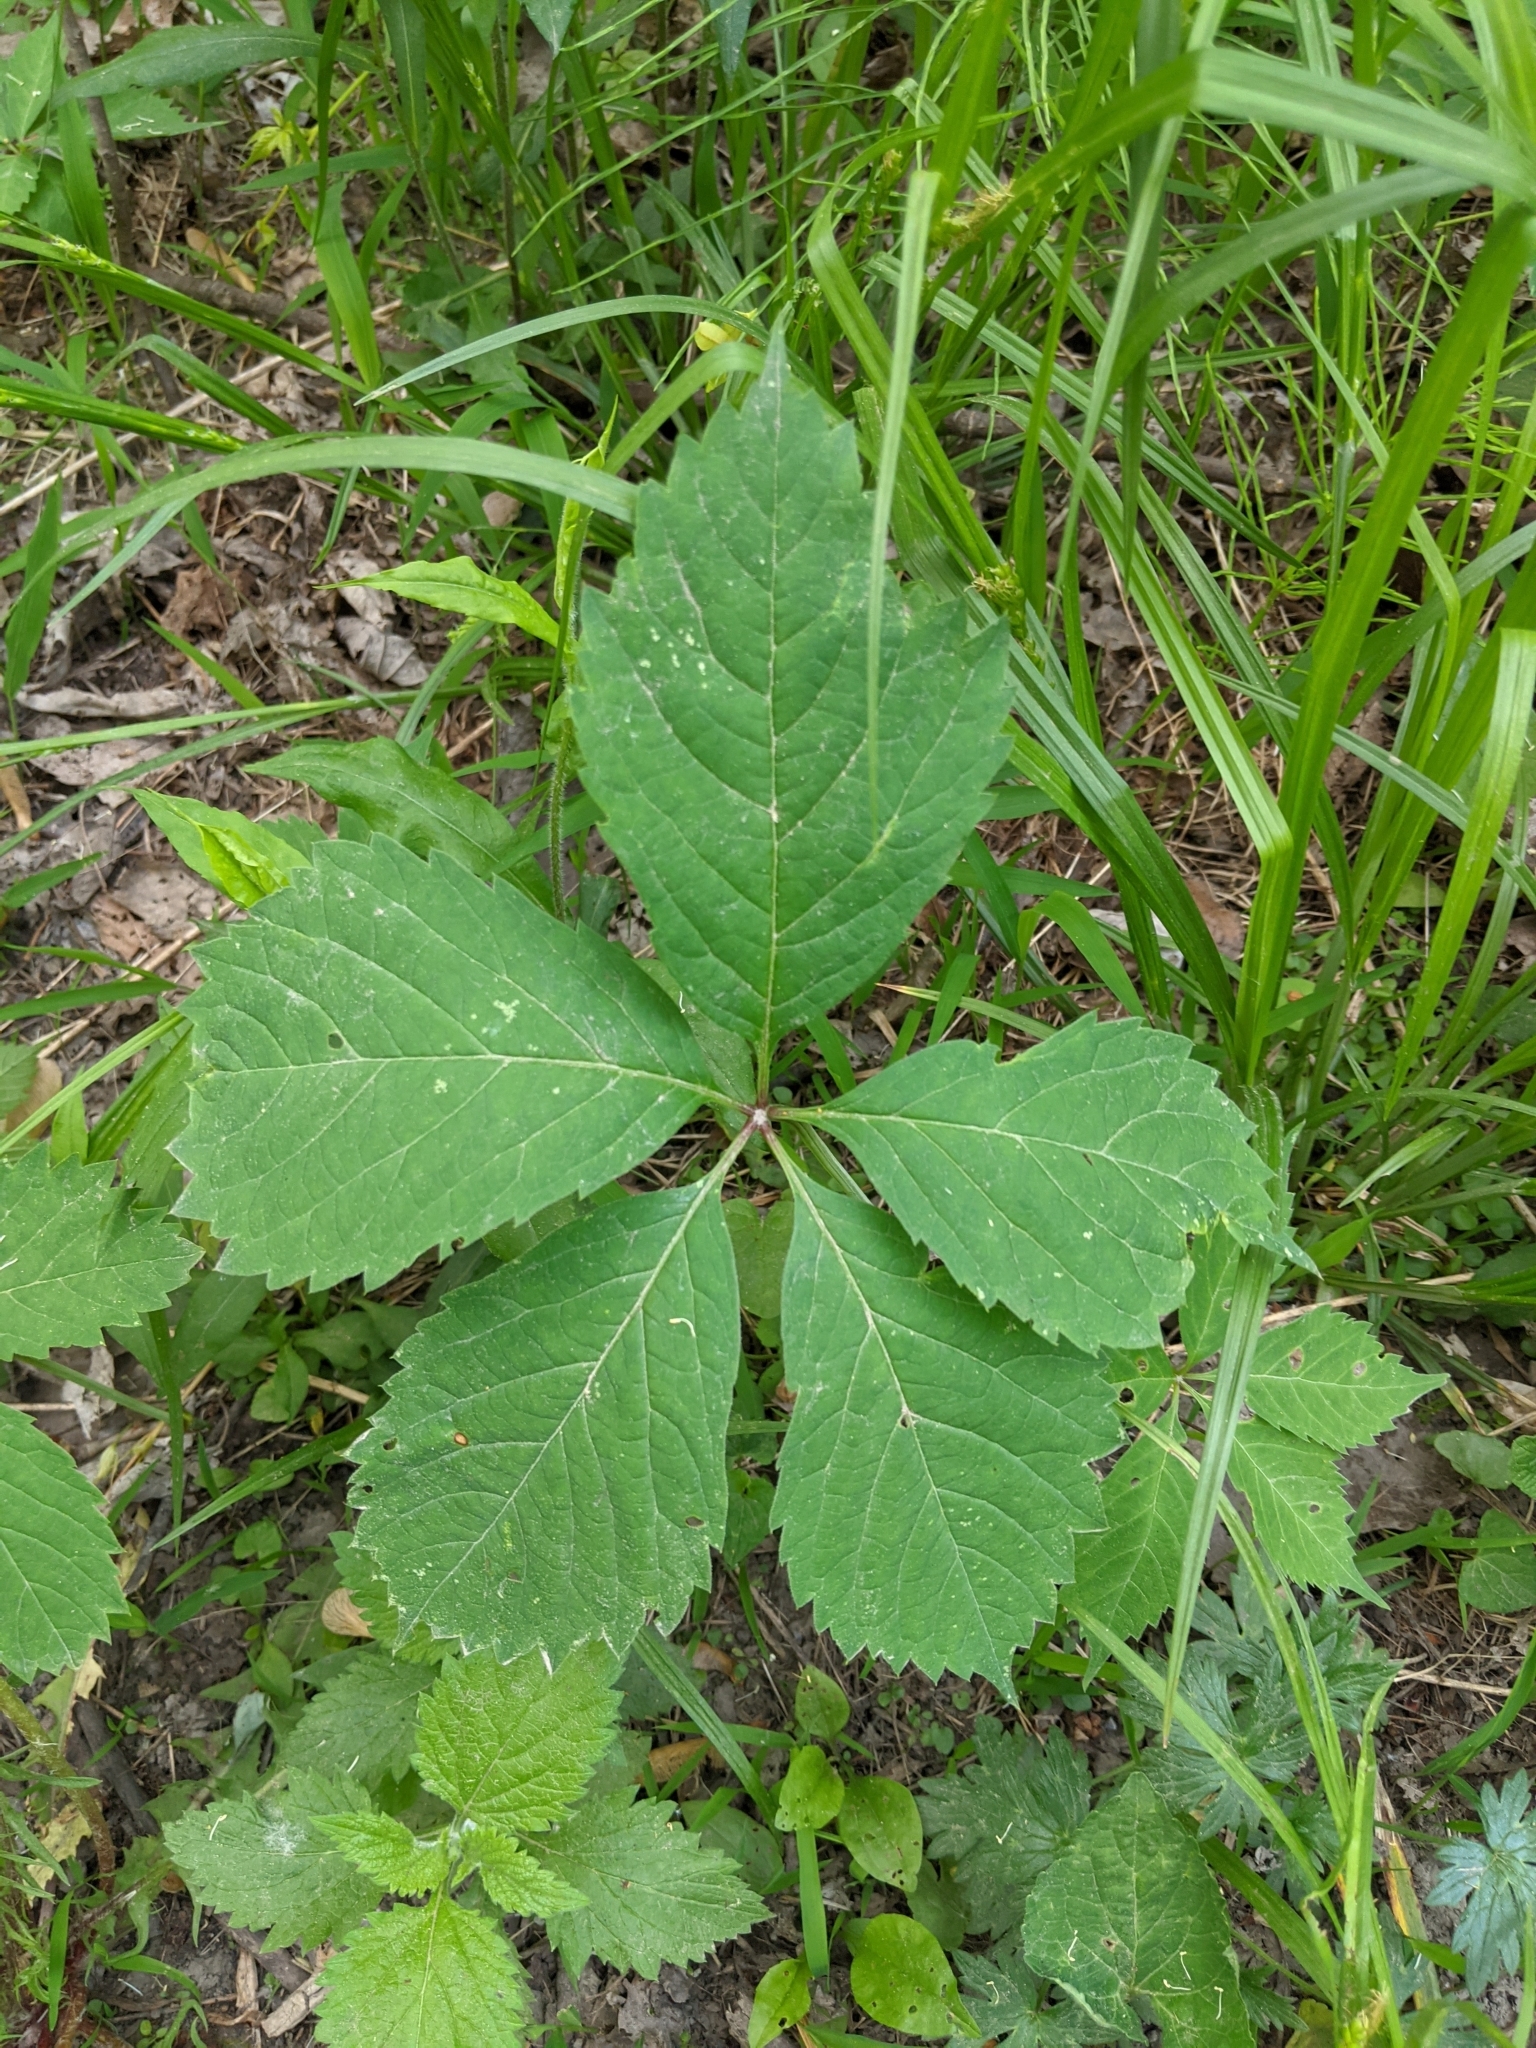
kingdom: Plantae
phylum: Tracheophyta
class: Magnoliopsida
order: Vitales
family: Vitaceae
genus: Parthenocissus
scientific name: Parthenocissus inserta
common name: False virginia-creeper
